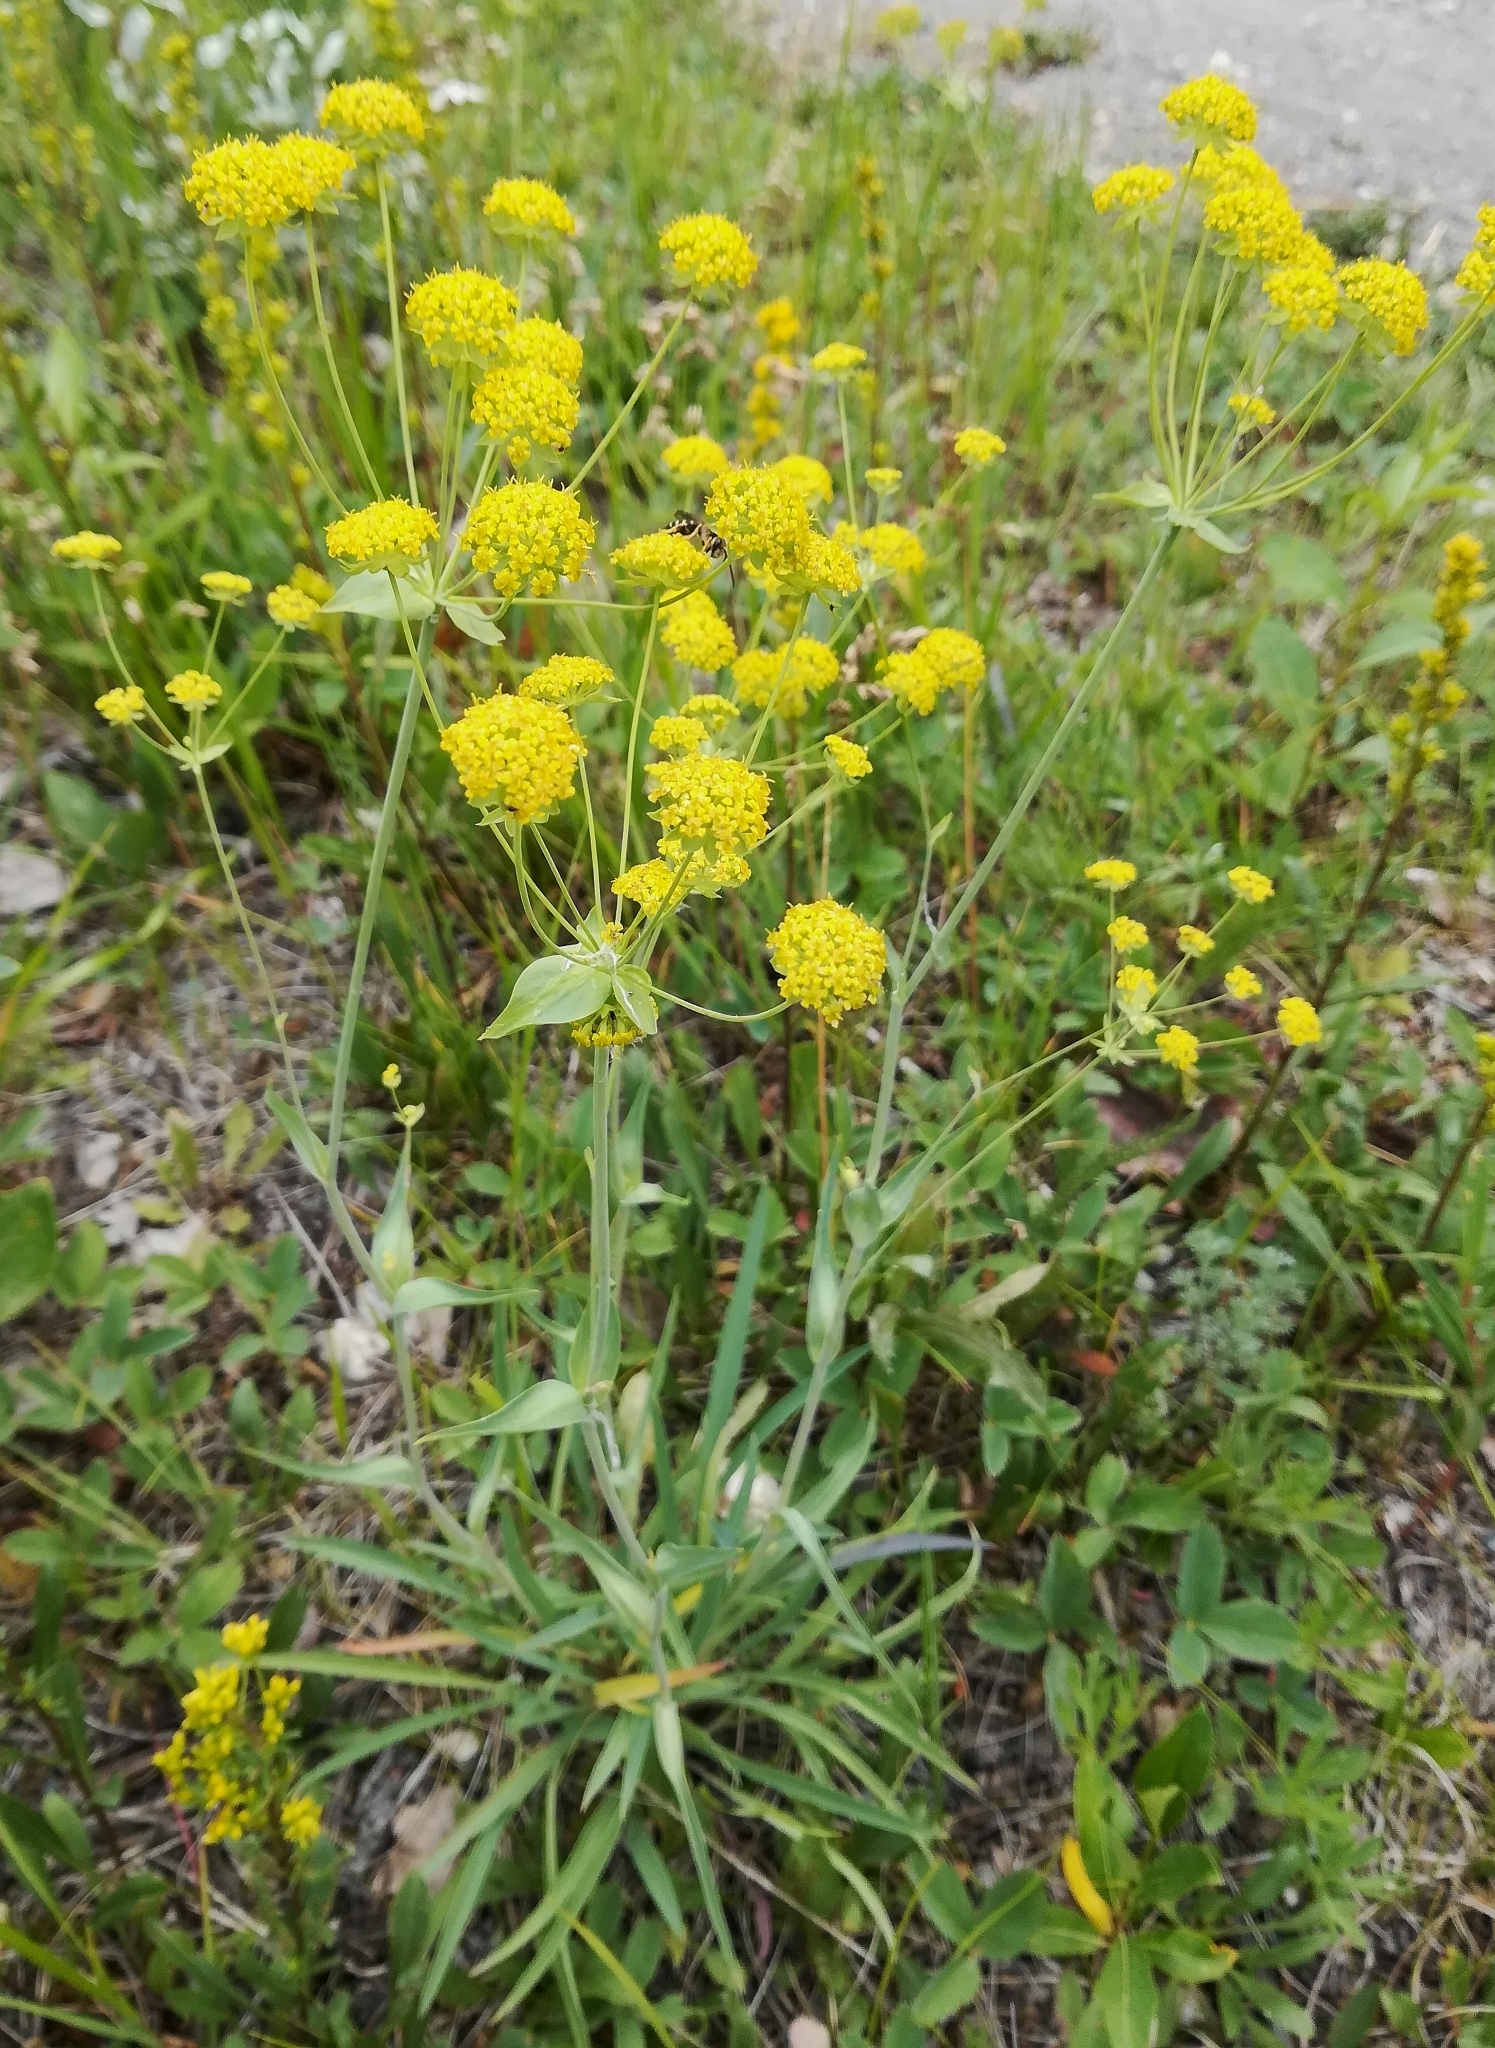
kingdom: Plantae
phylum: Tracheophyta
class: Magnoliopsida
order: Apiales
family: Apiaceae
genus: Bupleurum
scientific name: Bupleurum americanum
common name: American thoroughwax
